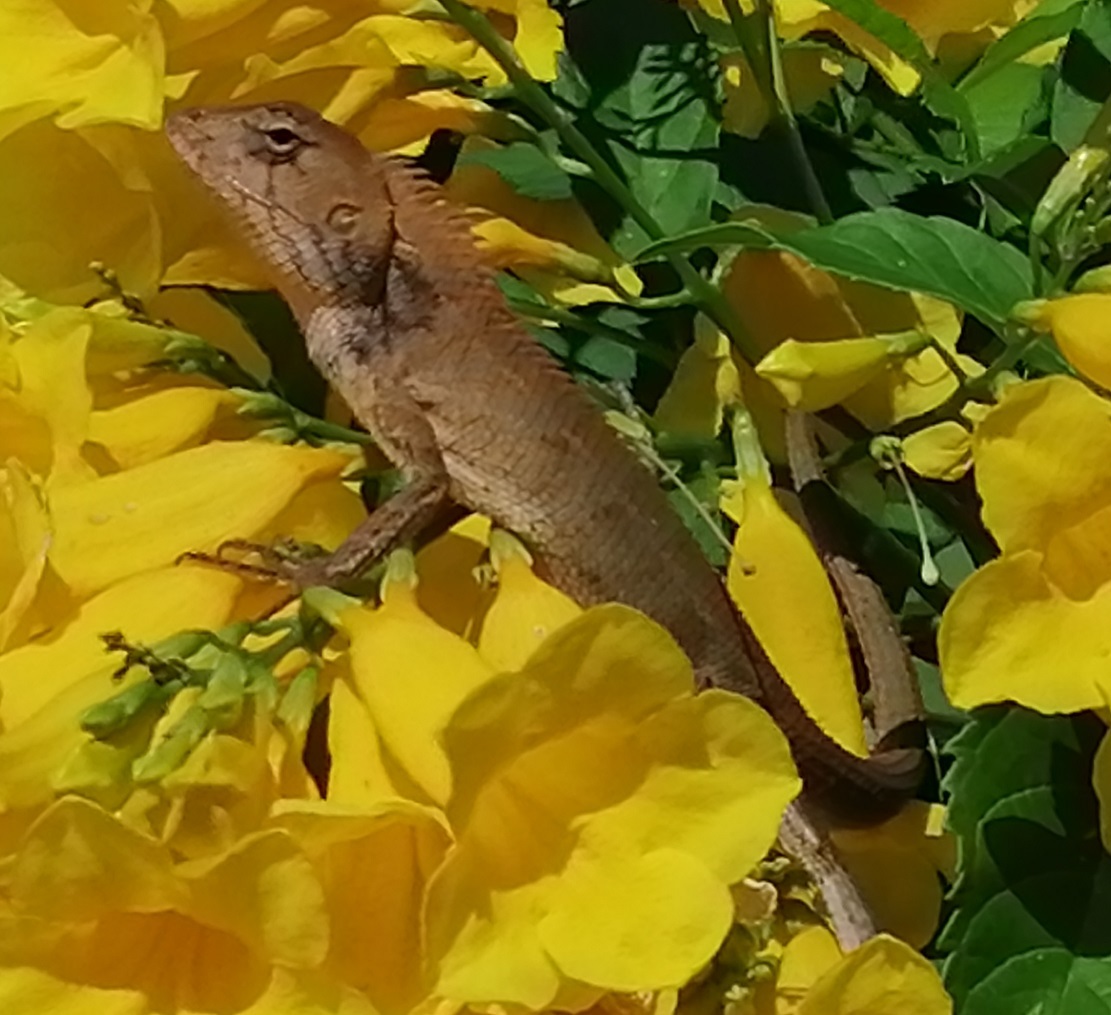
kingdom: Animalia
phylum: Chordata
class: Squamata
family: Agamidae
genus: Calotes
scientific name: Calotes versicolor
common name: Oriental garden lizard
